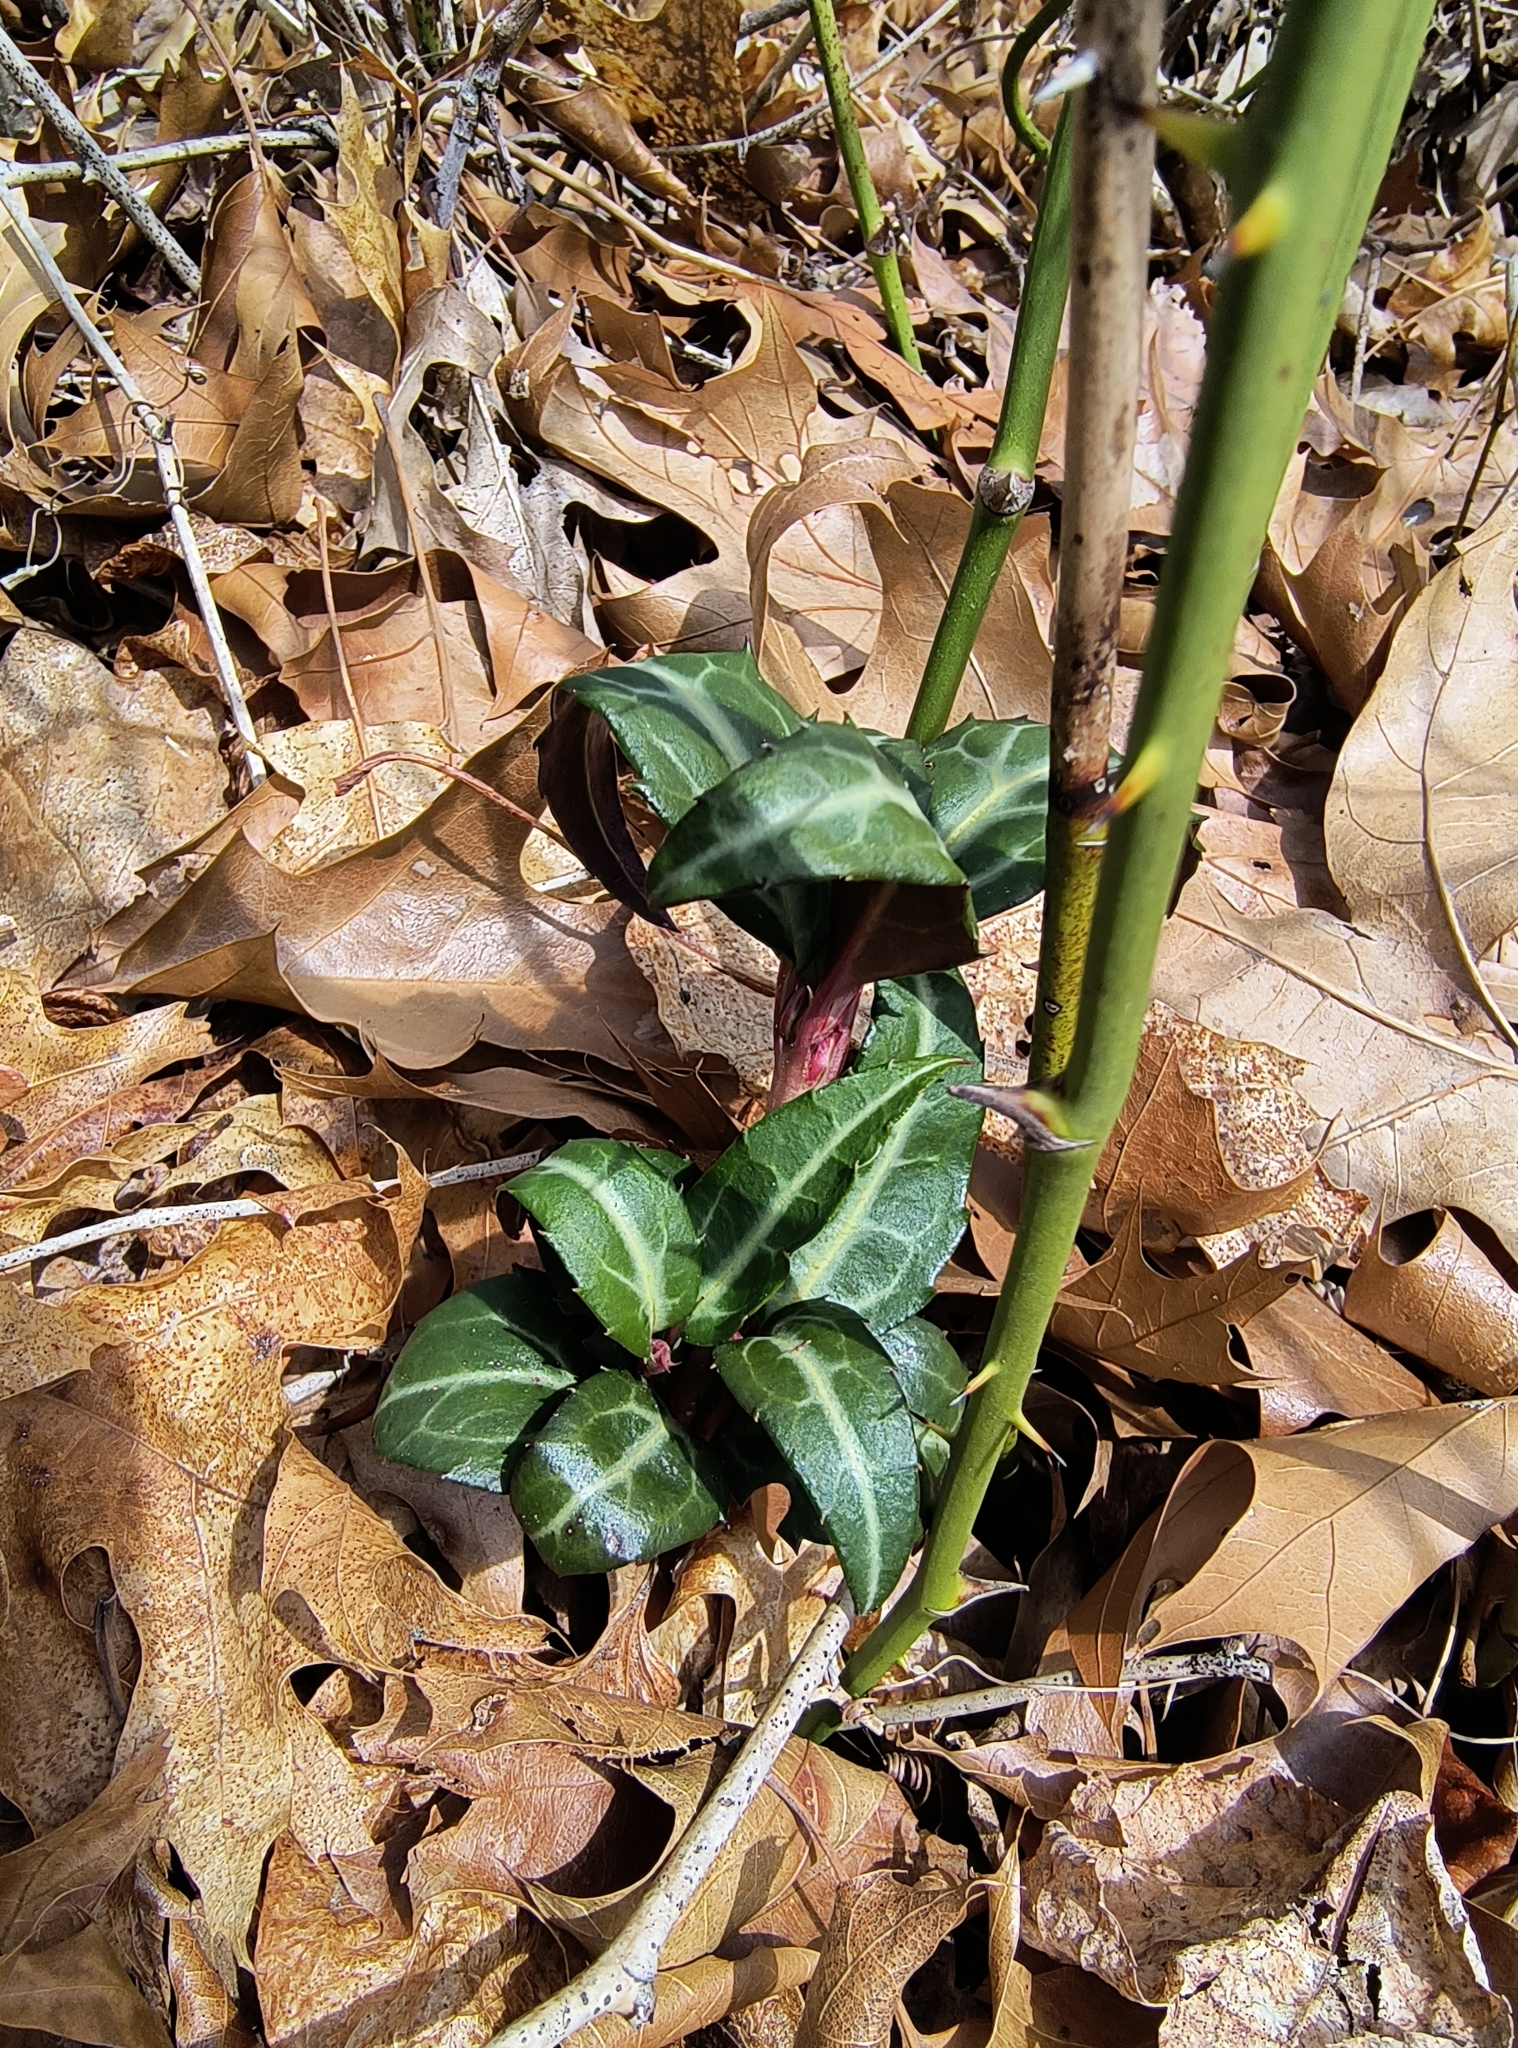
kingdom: Plantae
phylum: Tracheophyta
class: Magnoliopsida
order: Ericales
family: Ericaceae
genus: Chimaphila
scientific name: Chimaphila maculata
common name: Spotted pipsissewa
